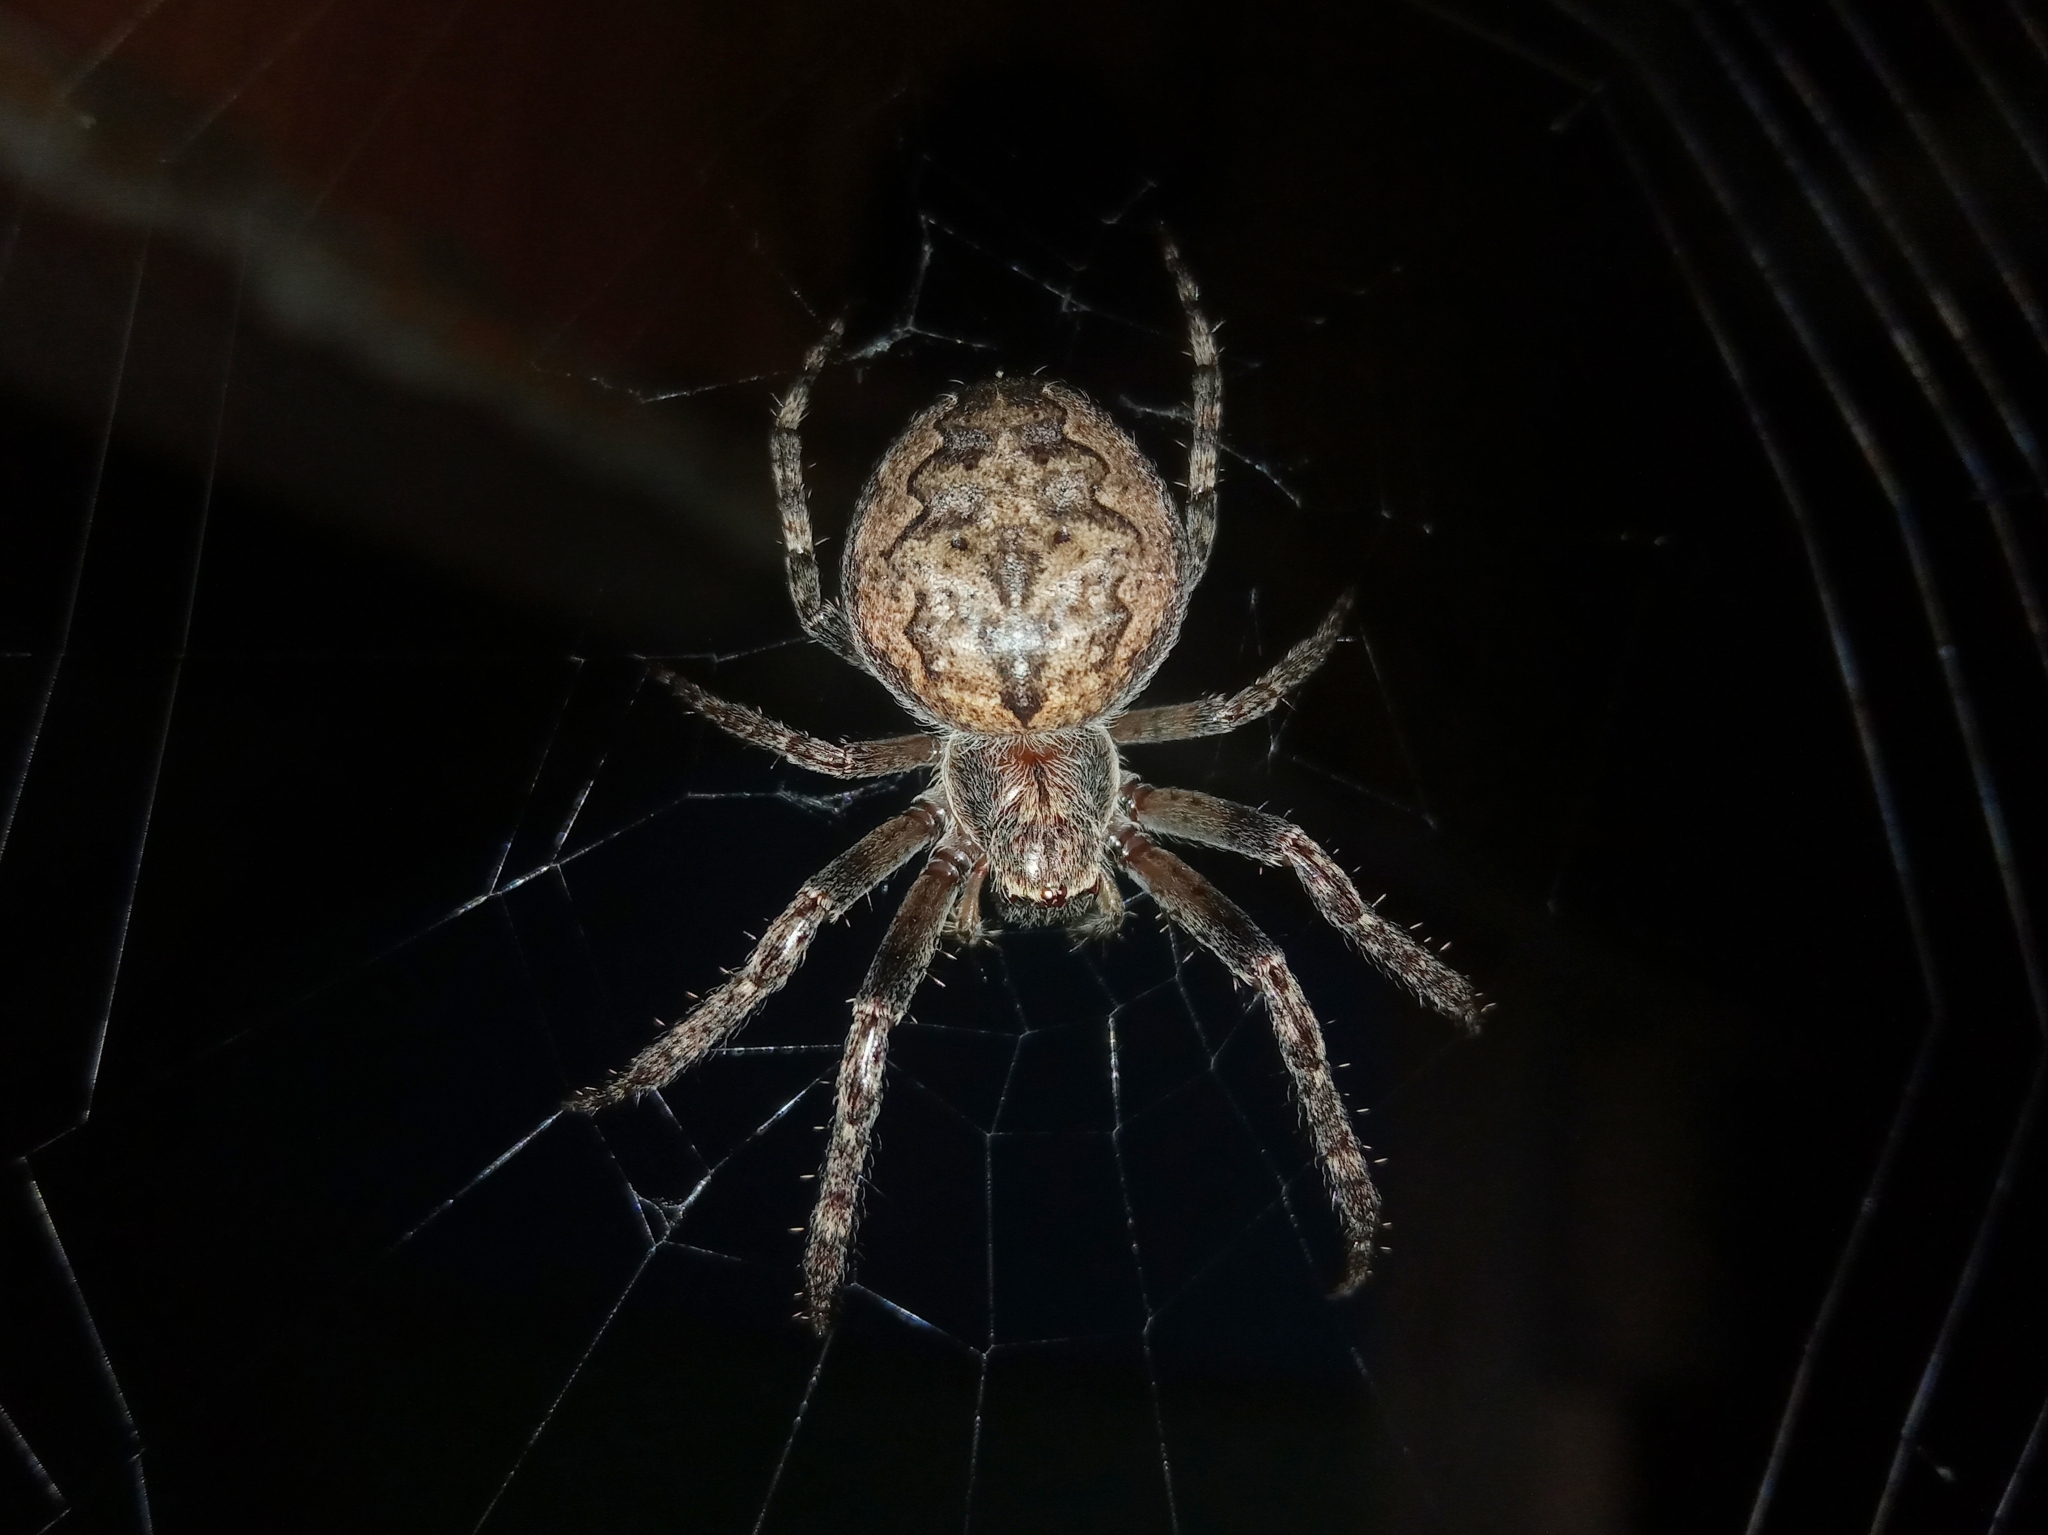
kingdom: Animalia
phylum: Arthropoda
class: Arachnida
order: Araneae
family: Araneidae
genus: Larinioides
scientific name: Larinioides ixobolus
